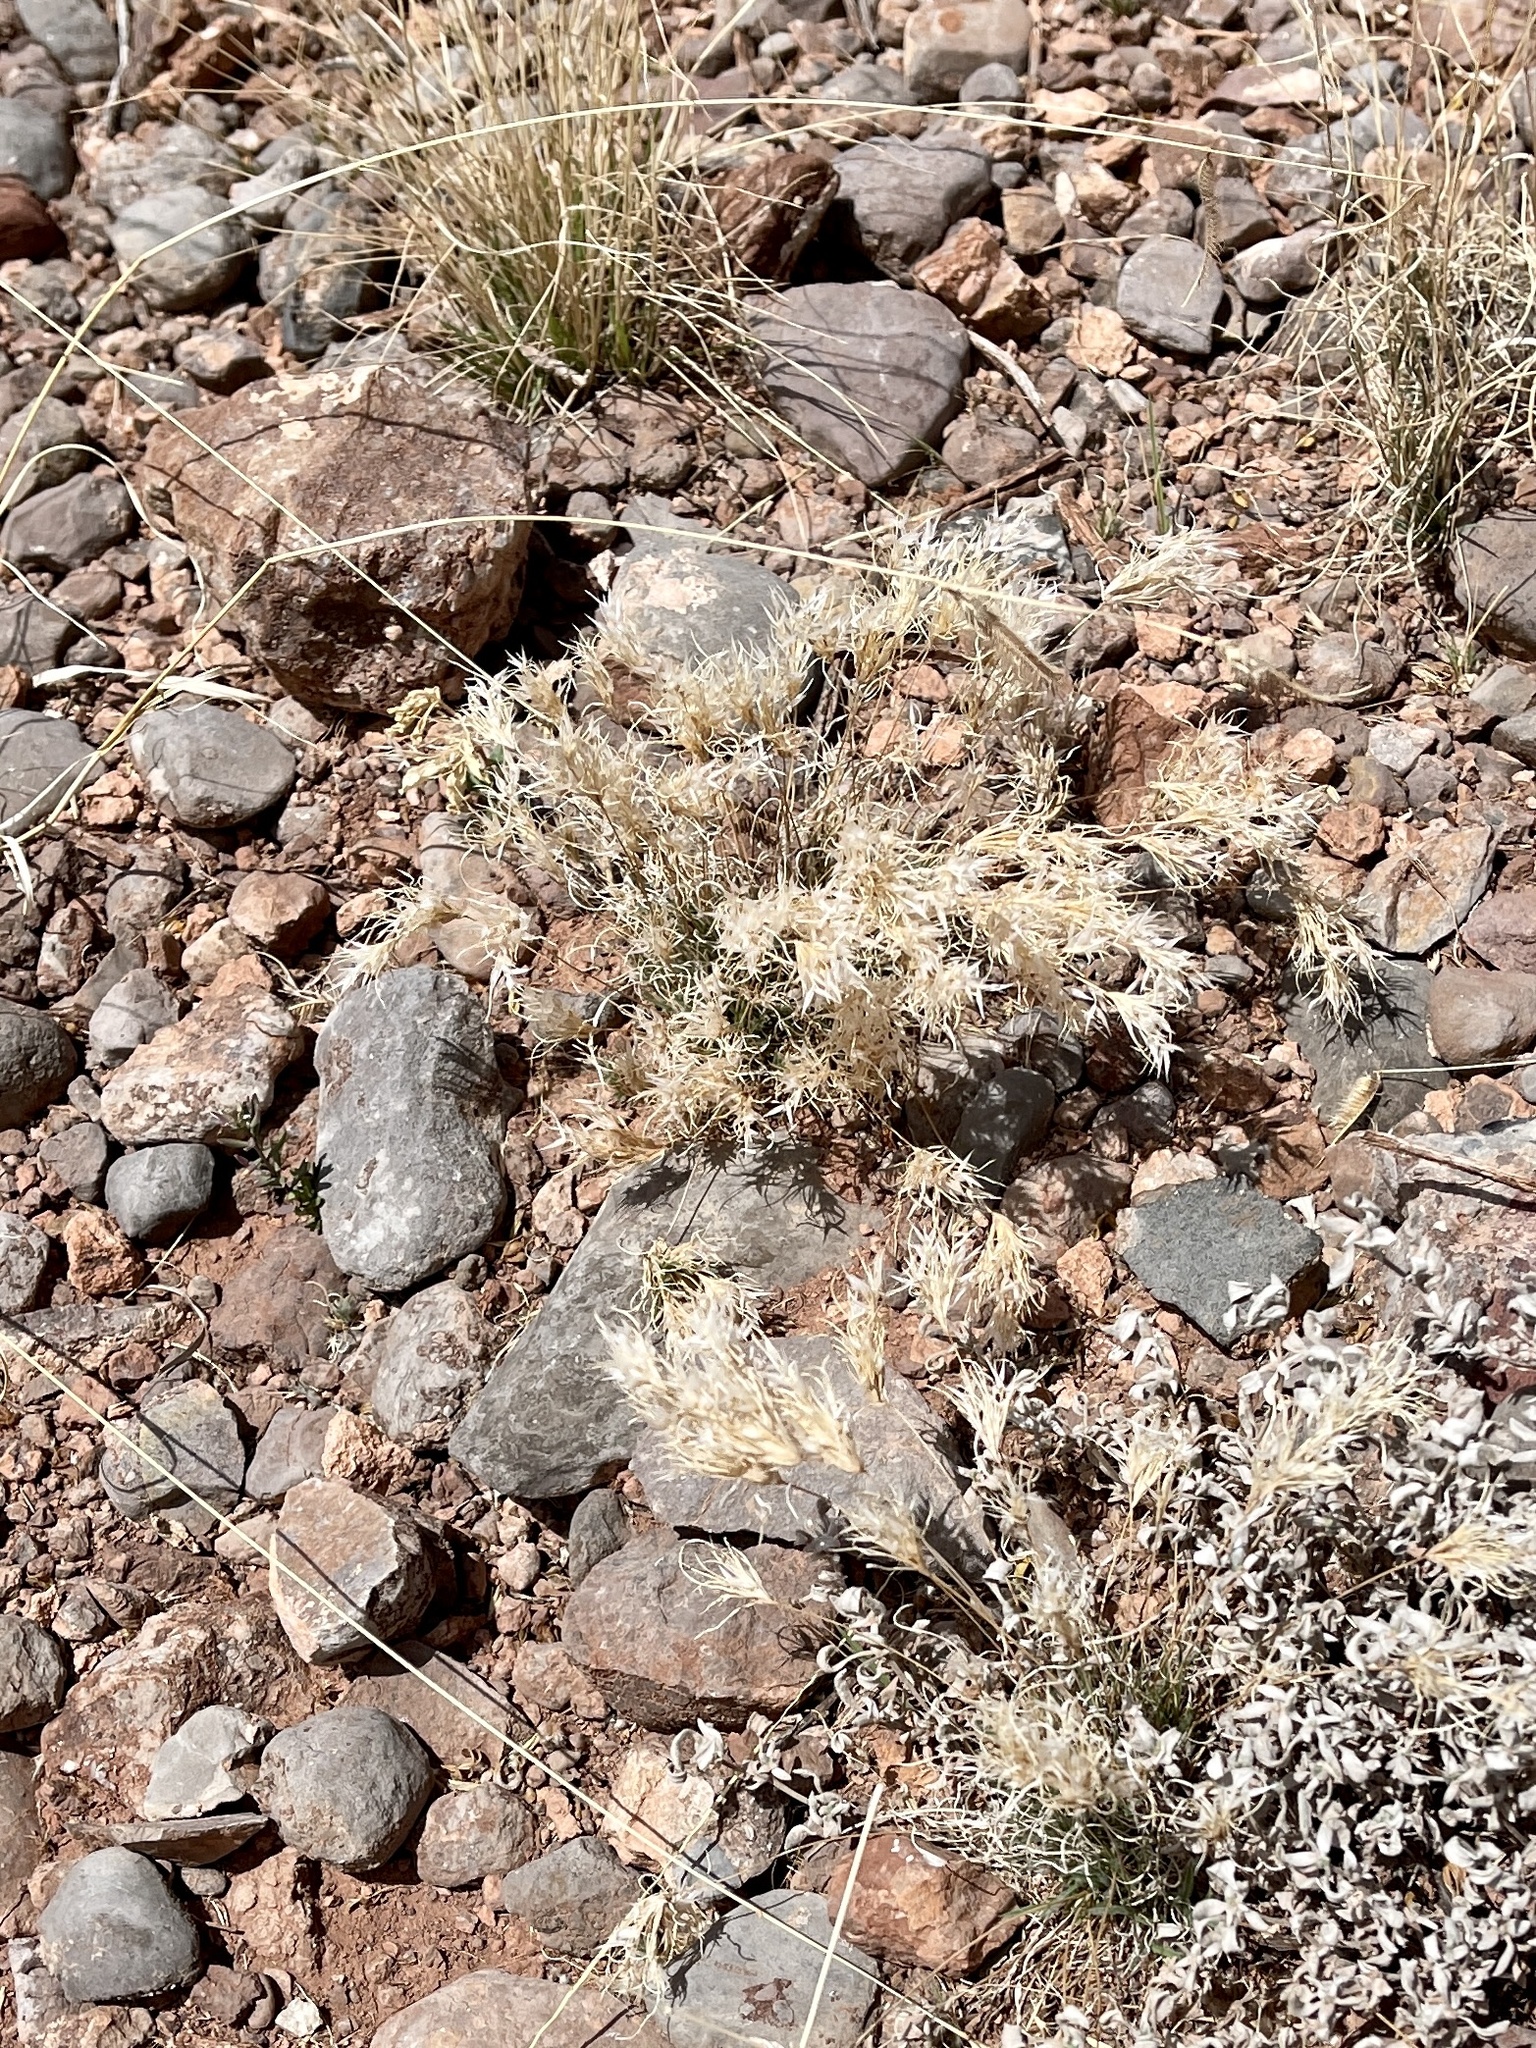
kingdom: Plantae
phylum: Tracheophyta
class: Liliopsida
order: Poales
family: Poaceae
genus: Dasyochloa
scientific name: Dasyochloa pulchella
